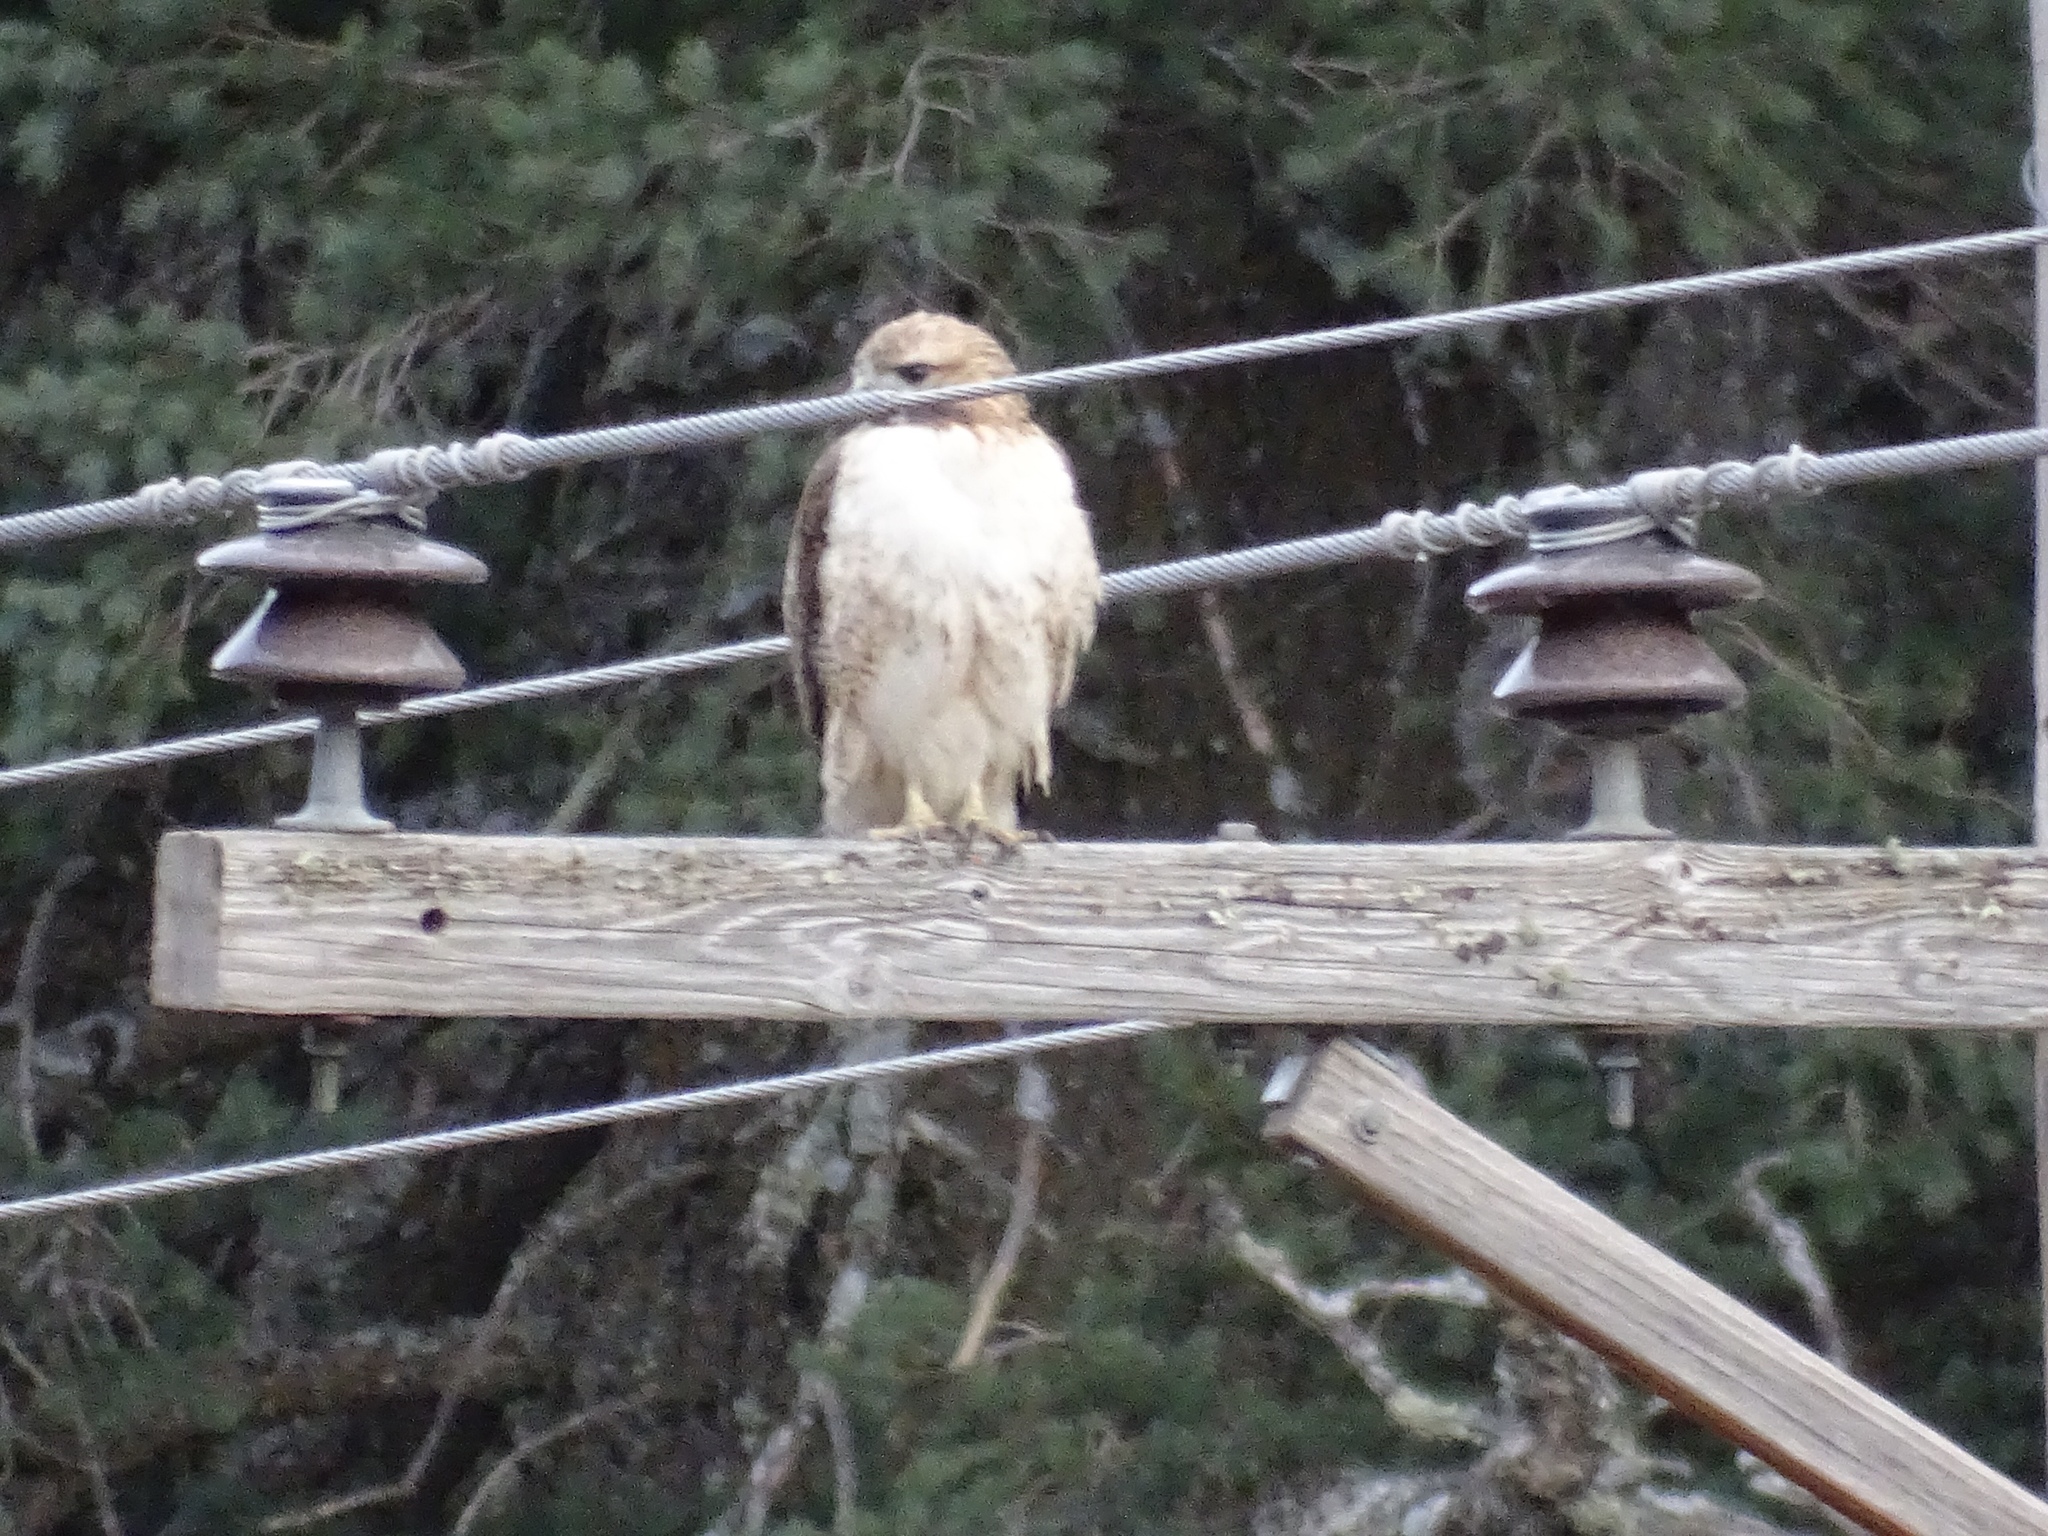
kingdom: Animalia
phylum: Chordata
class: Aves
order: Accipitriformes
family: Accipitridae
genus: Buteo
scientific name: Buteo jamaicensis
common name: Red-tailed hawk
